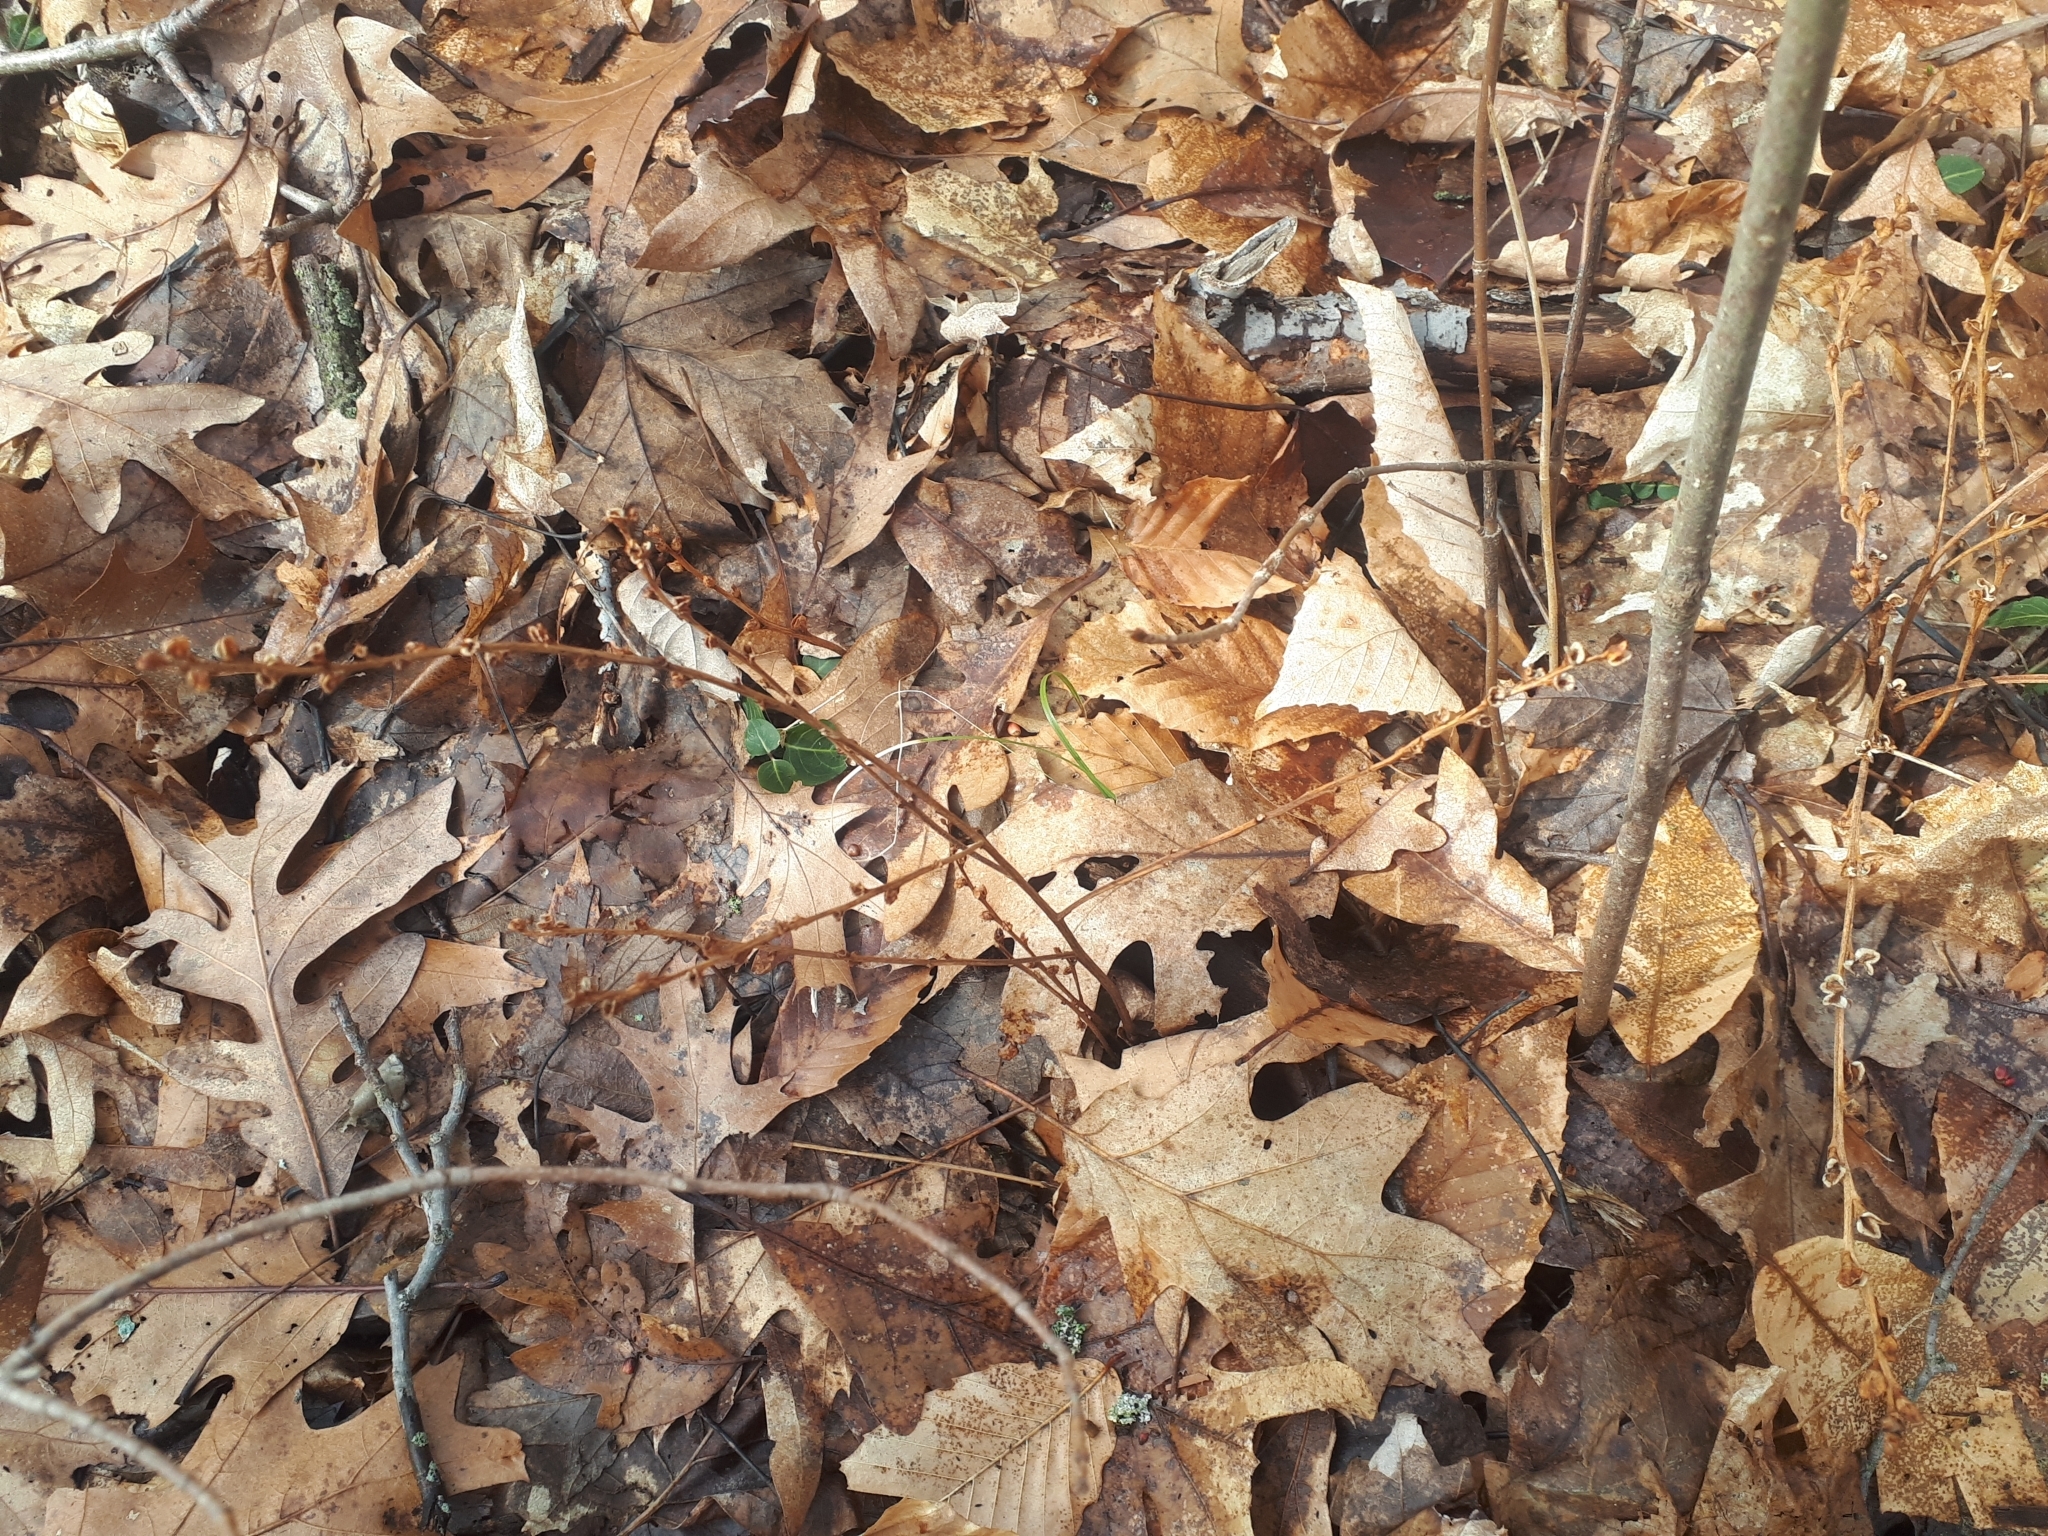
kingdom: Plantae
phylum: Tracheophyta
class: Magnoliopsida
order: Lamiales
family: Orobanchaceae
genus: Epifagus
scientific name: Epifagus virginiana
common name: Beechdrops
